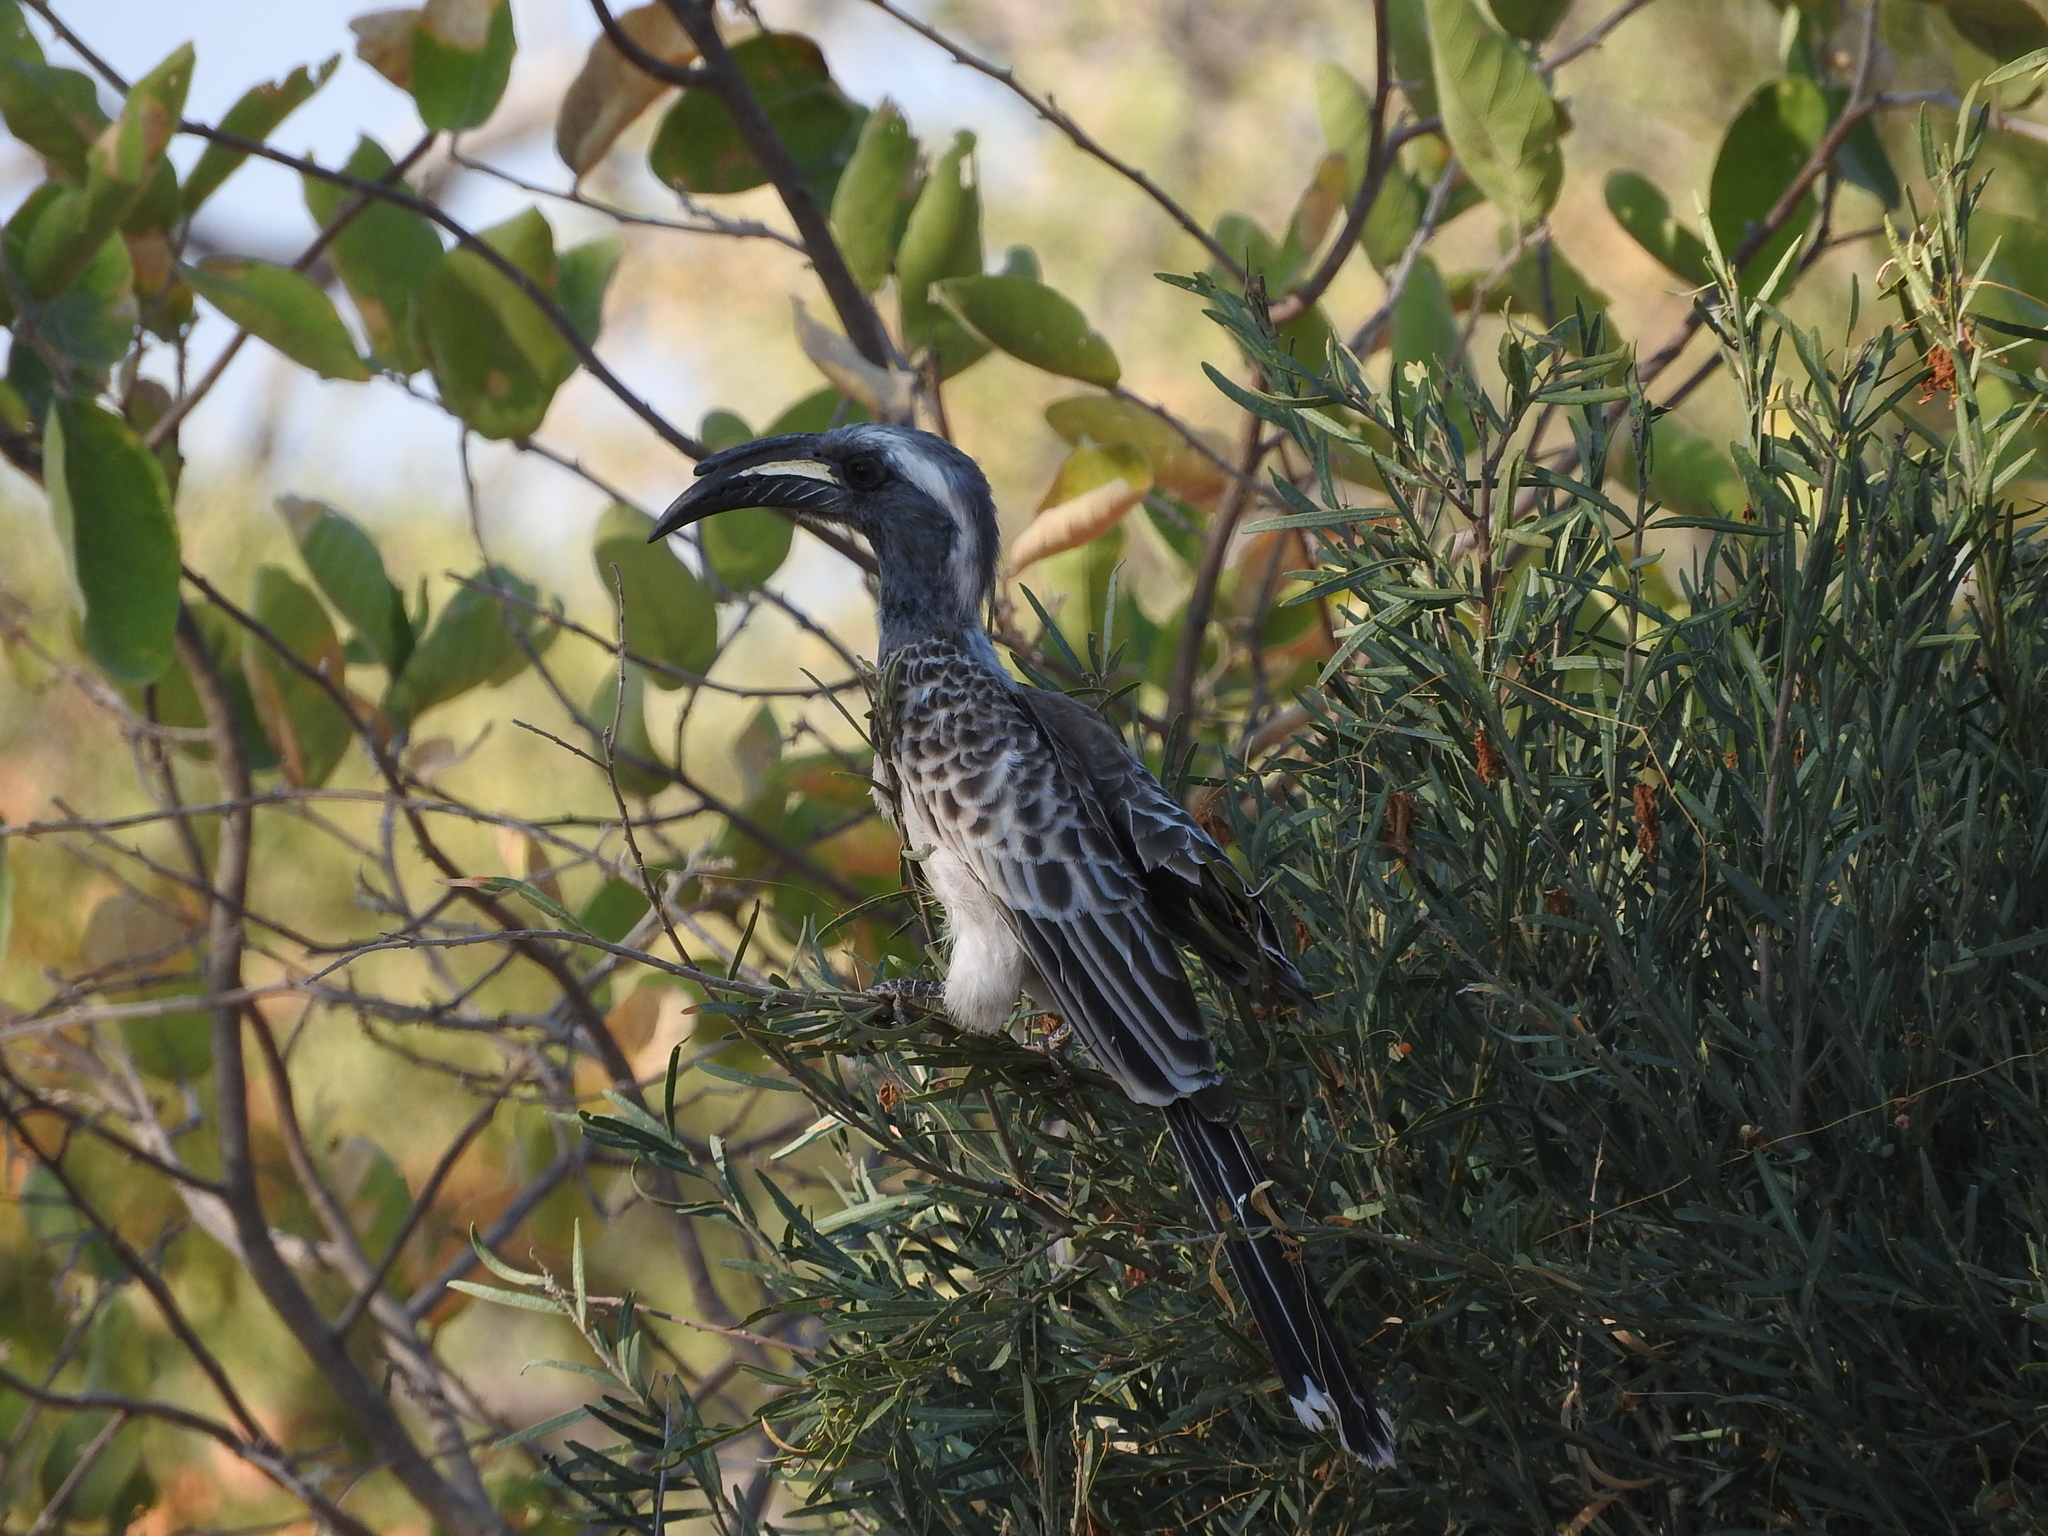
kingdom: Animalia
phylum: Chordata
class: Aves
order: Bucerotiformes
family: Bucerotidae
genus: Lophoceros
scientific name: Lophoceros nasutus
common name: African grey hornbill
